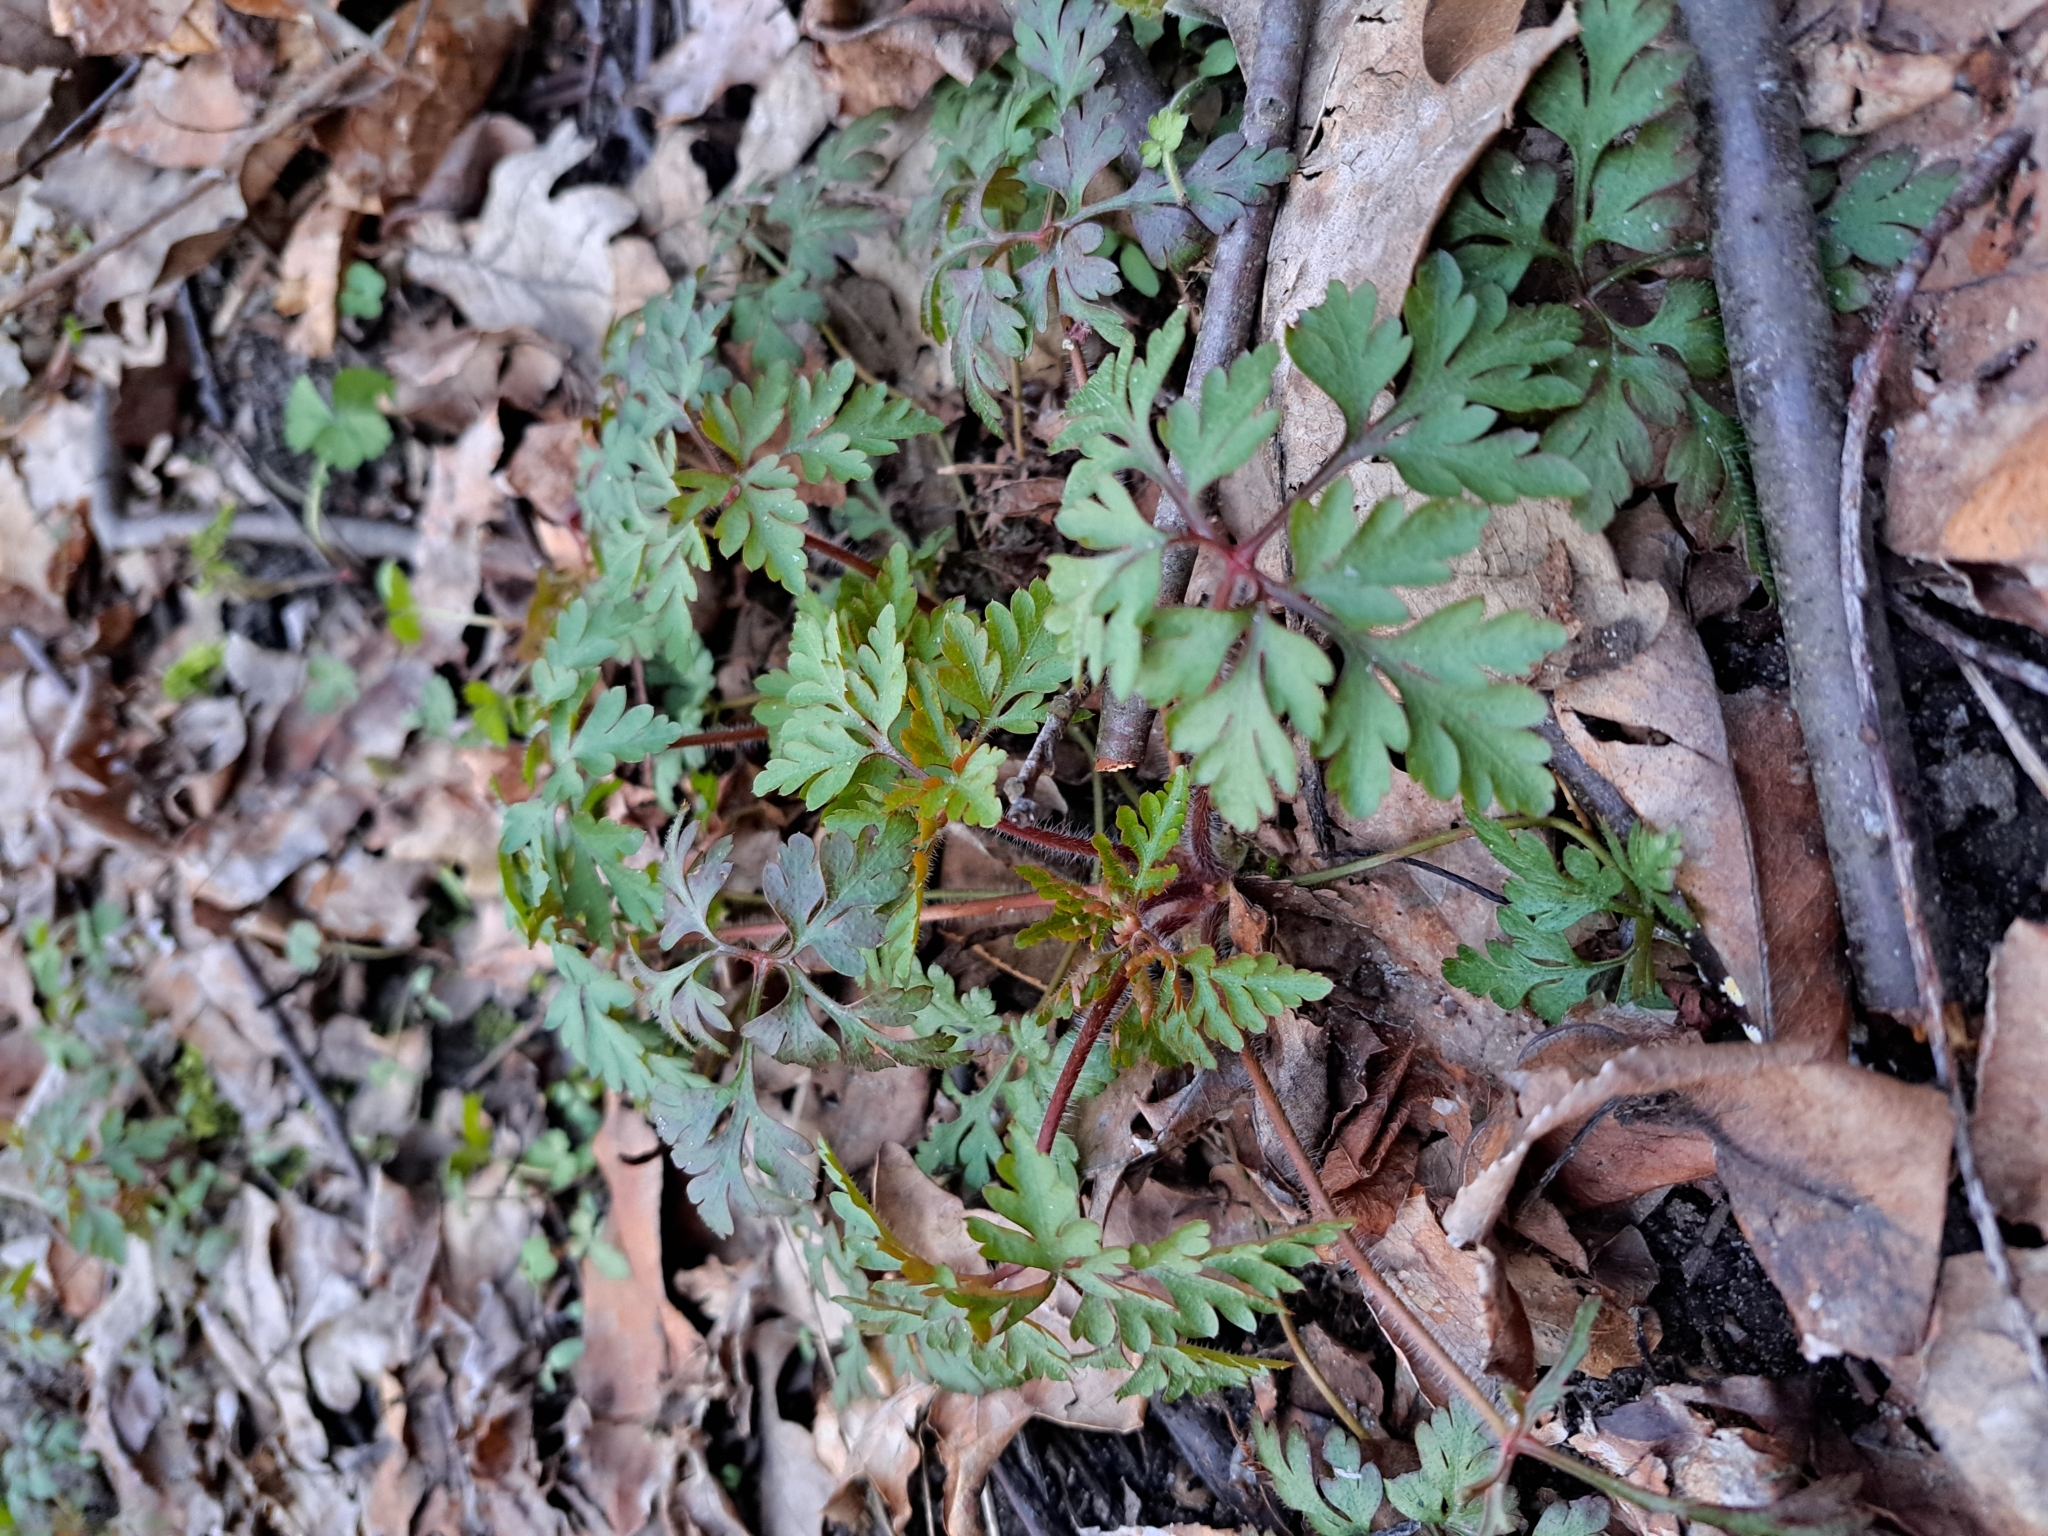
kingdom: Plantae
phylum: Tracheophyta
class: Magnoliopsida
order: Geraniales
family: Geraniaceae
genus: Geranium
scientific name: Geranium robertianum
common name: Herb-robert
